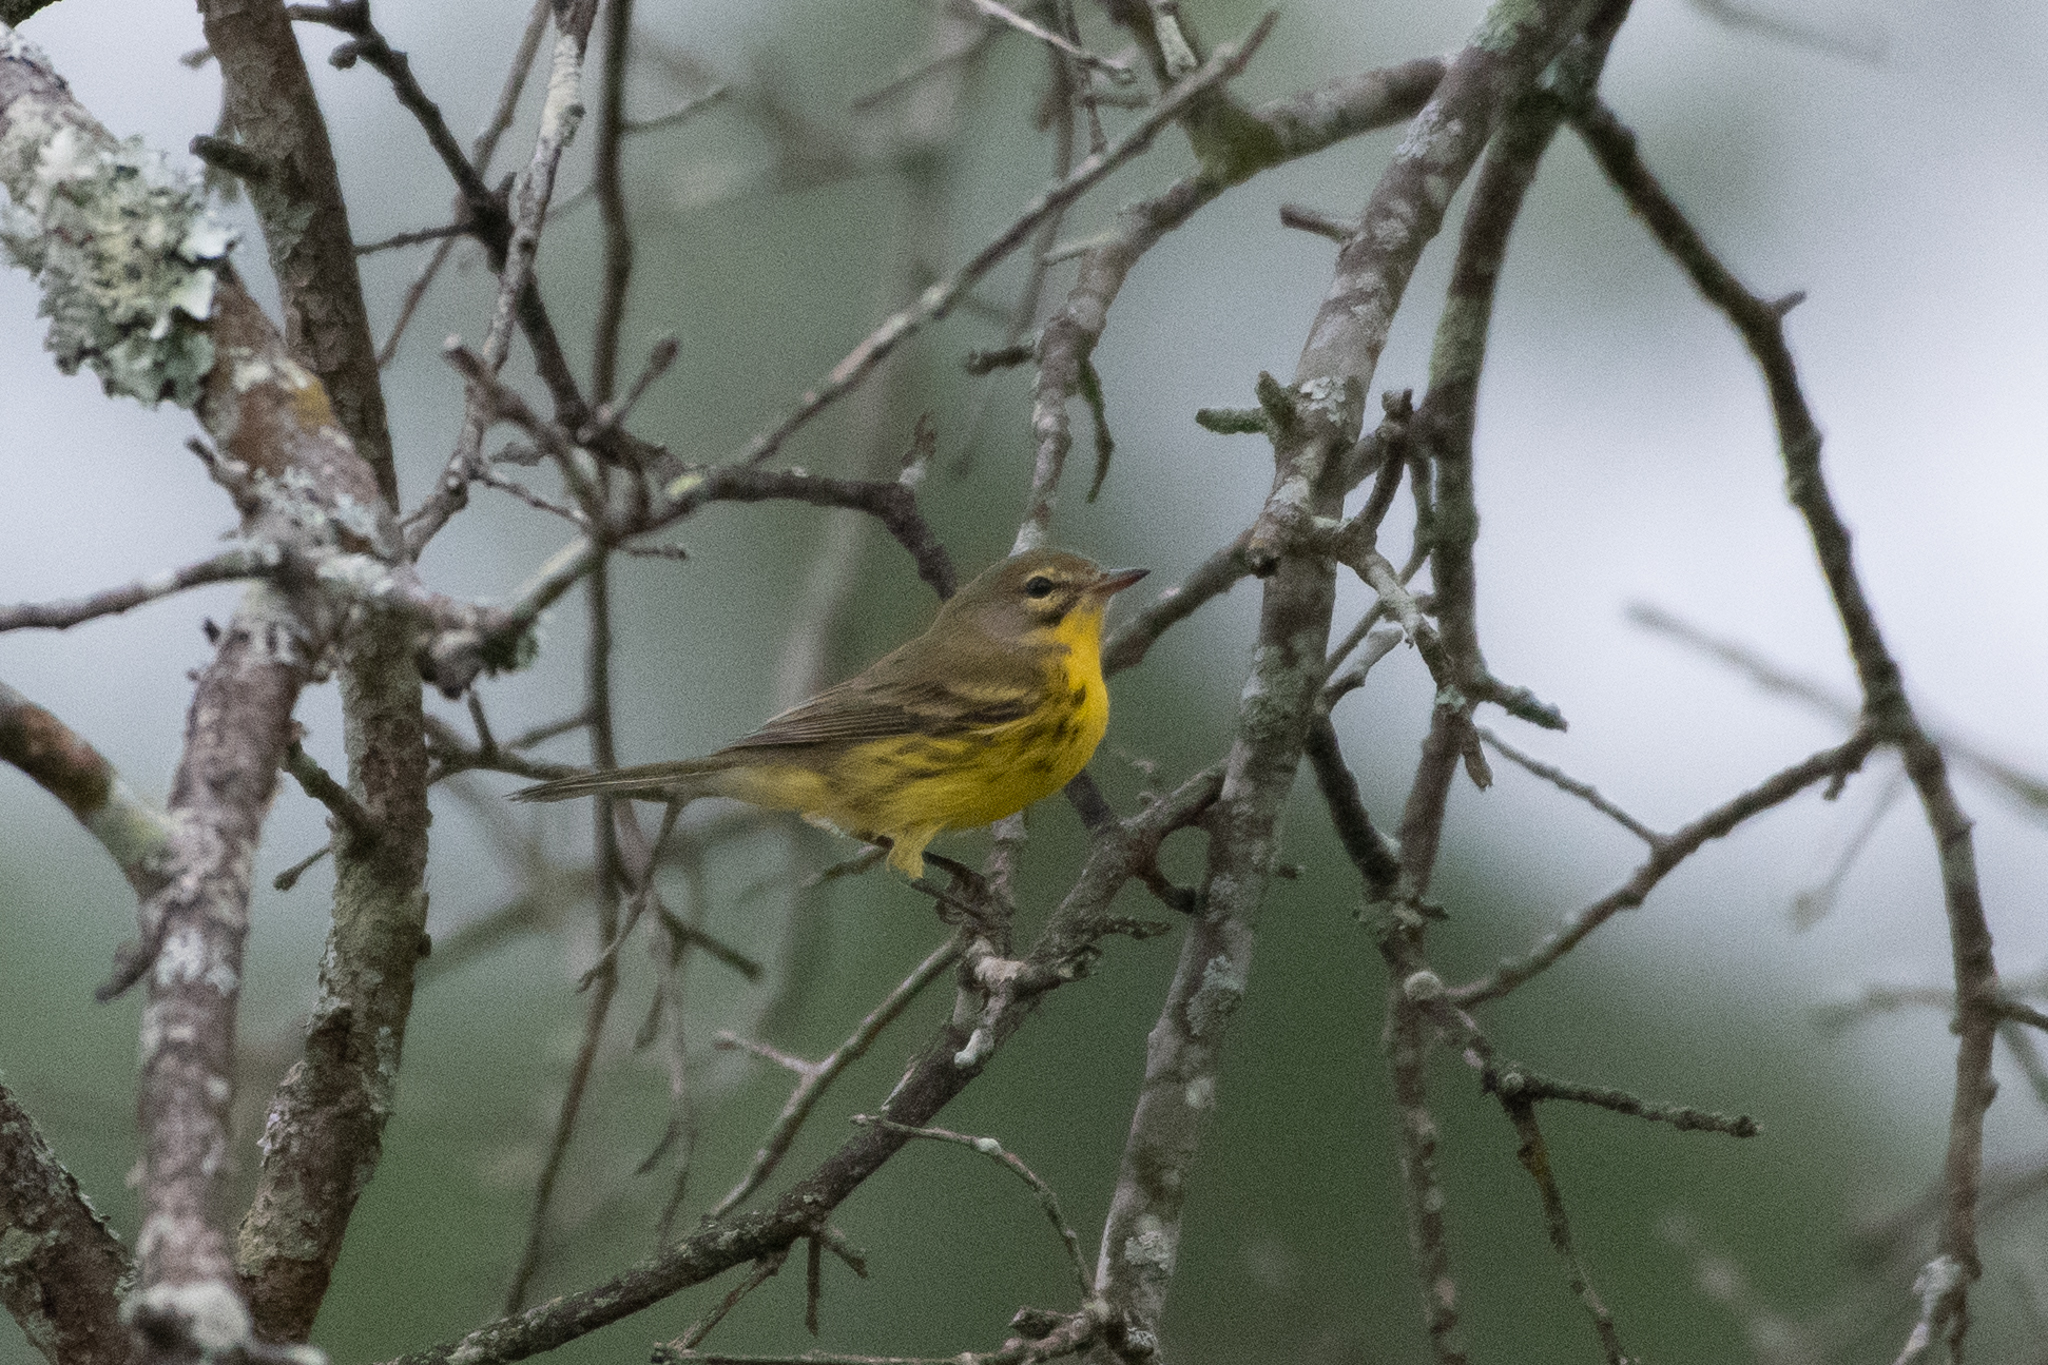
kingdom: Animalia
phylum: Chordata
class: Aves
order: Passeriformes
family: Parulidae
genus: Setophaga
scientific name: Setophaga discolor
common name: Prairie warbler
